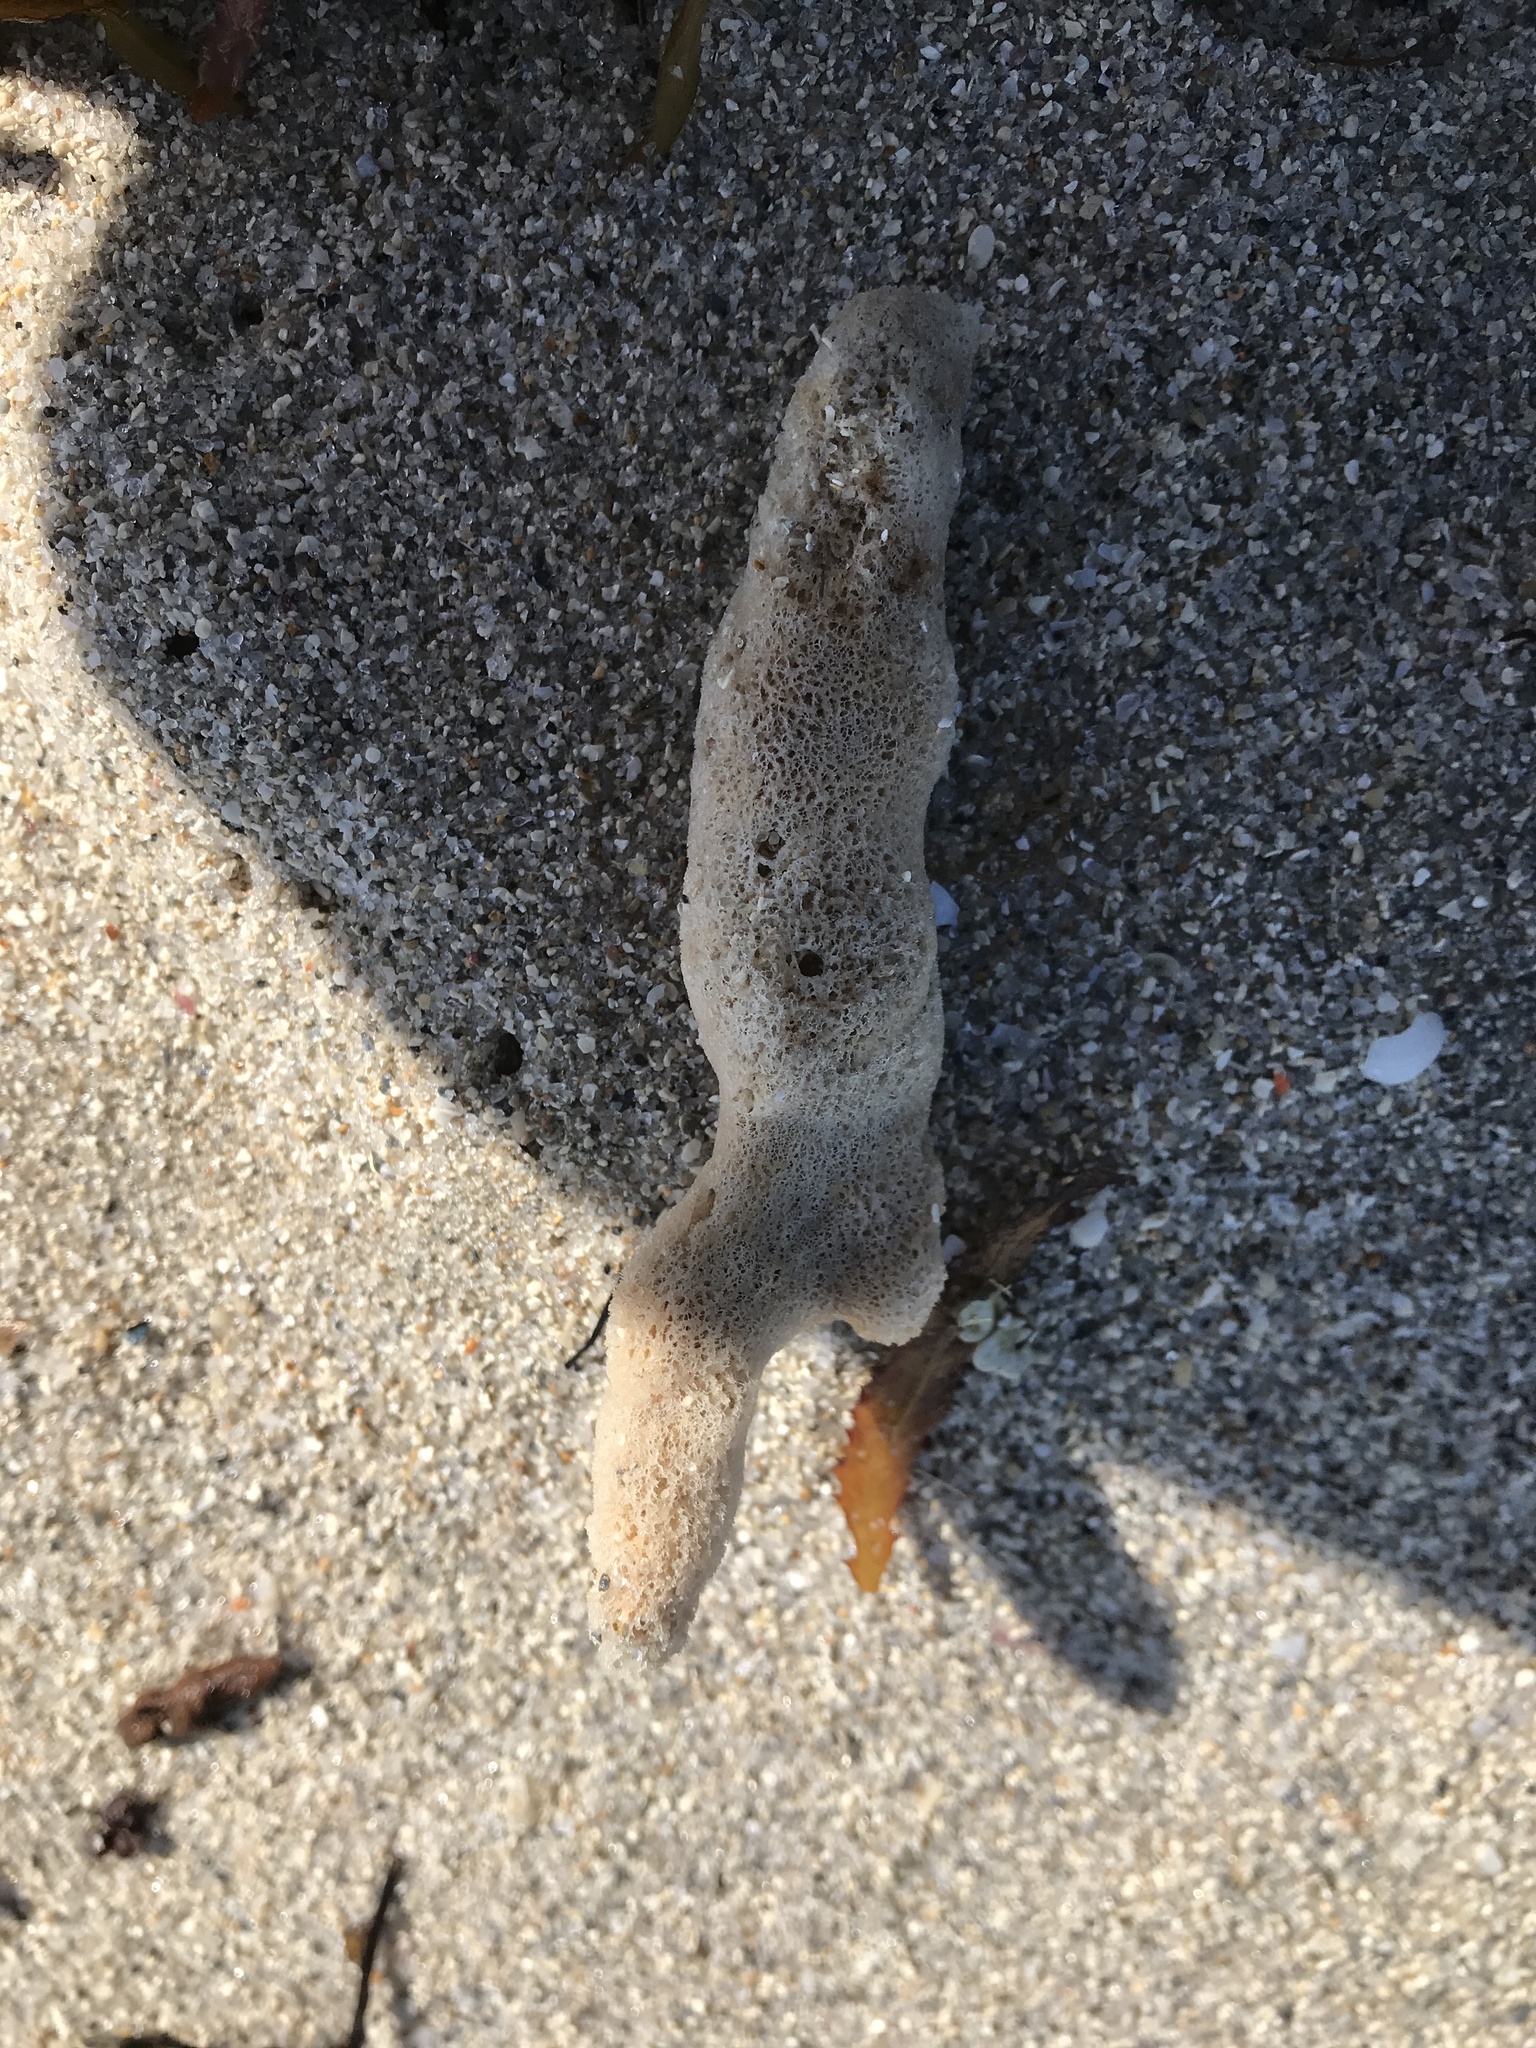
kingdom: Animalia
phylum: Porifera
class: Demospongiae
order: Haplosclerida
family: Niphatidae
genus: Amphimedon
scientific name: Amphimedon compressa
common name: Red sponge
